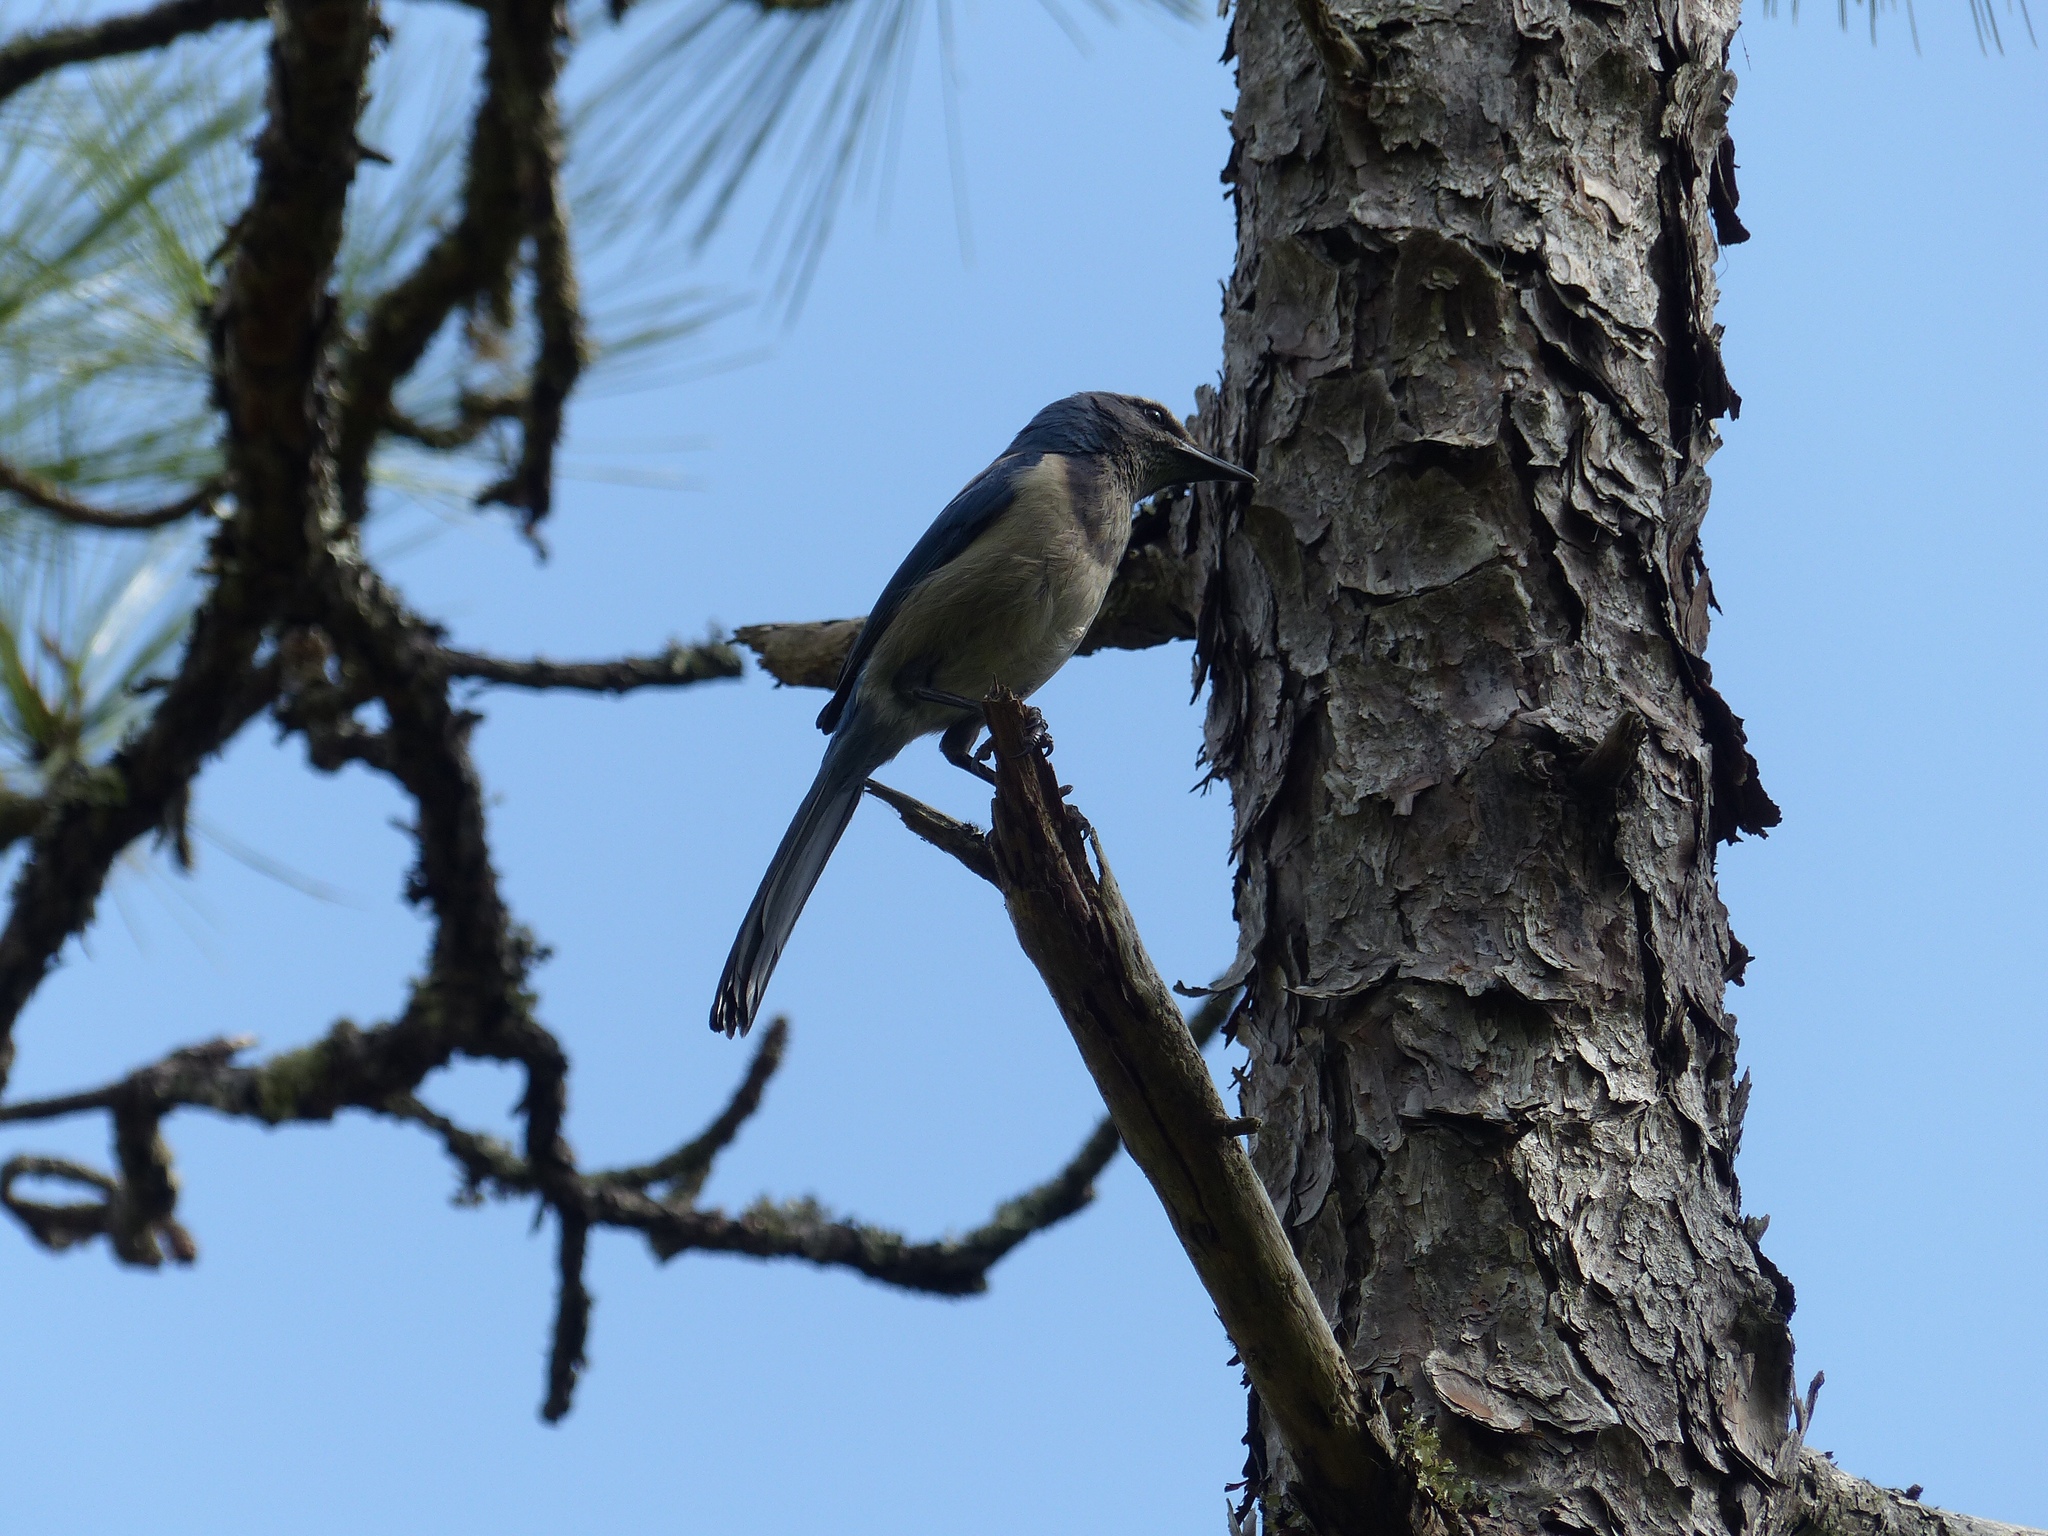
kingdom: Animalia
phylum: Chordata
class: Aves
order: Passeriformes
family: Corvidae
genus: Aphelocoma
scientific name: Aphelocoma coerulescens
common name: Florida scrub jay
